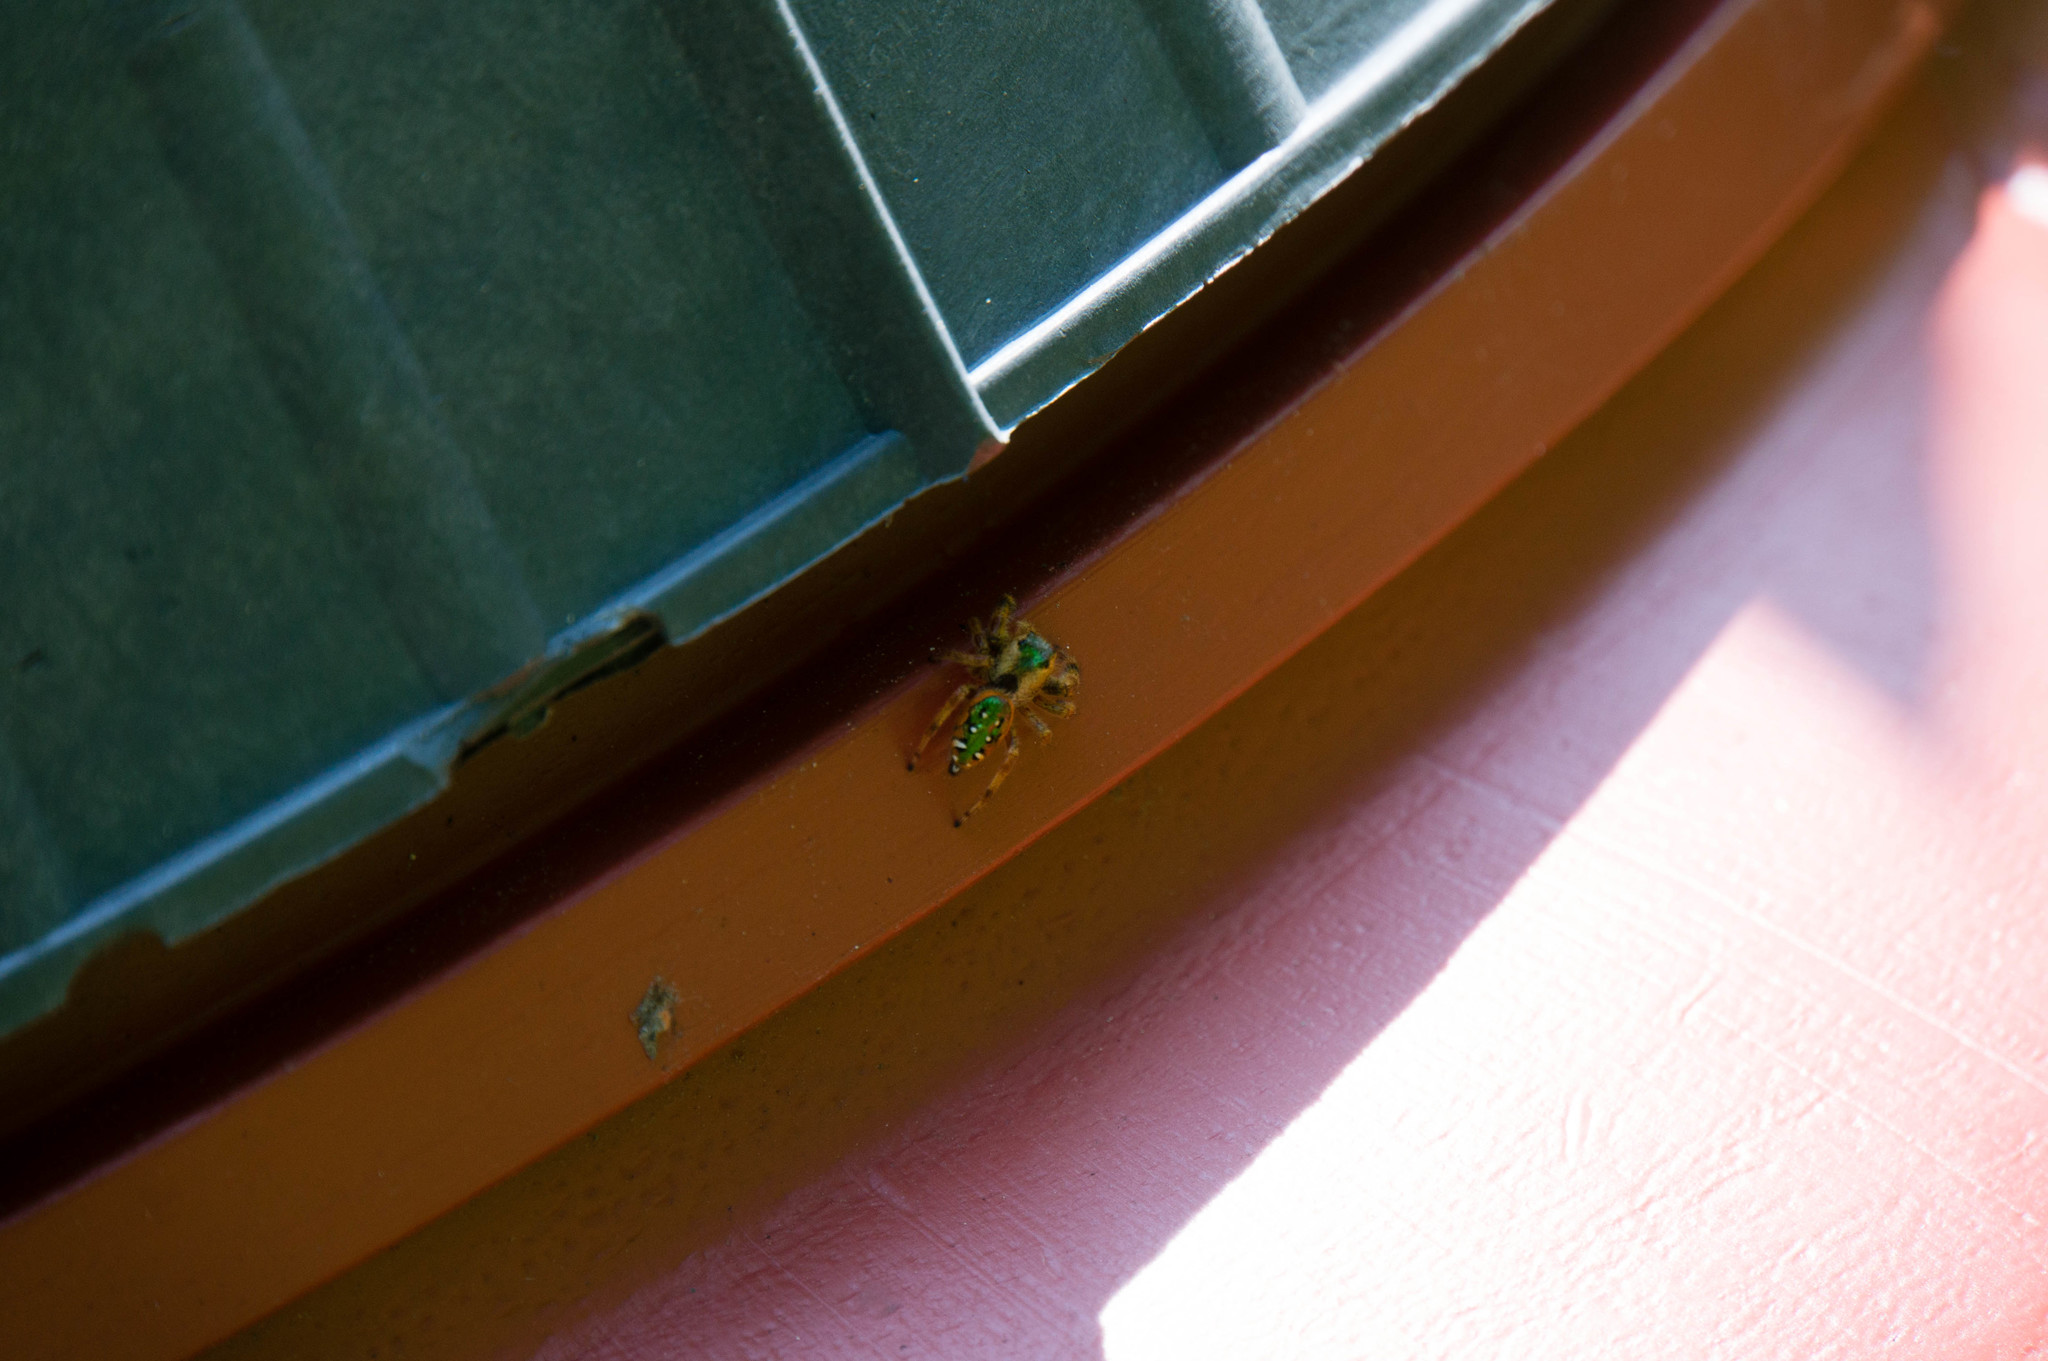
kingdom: Animalia
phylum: Arthropoda
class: Arachnida
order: Araneae
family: Salticidae
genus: Paraphidippus
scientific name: Paraphidippus aurantius
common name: Jumping spiders
